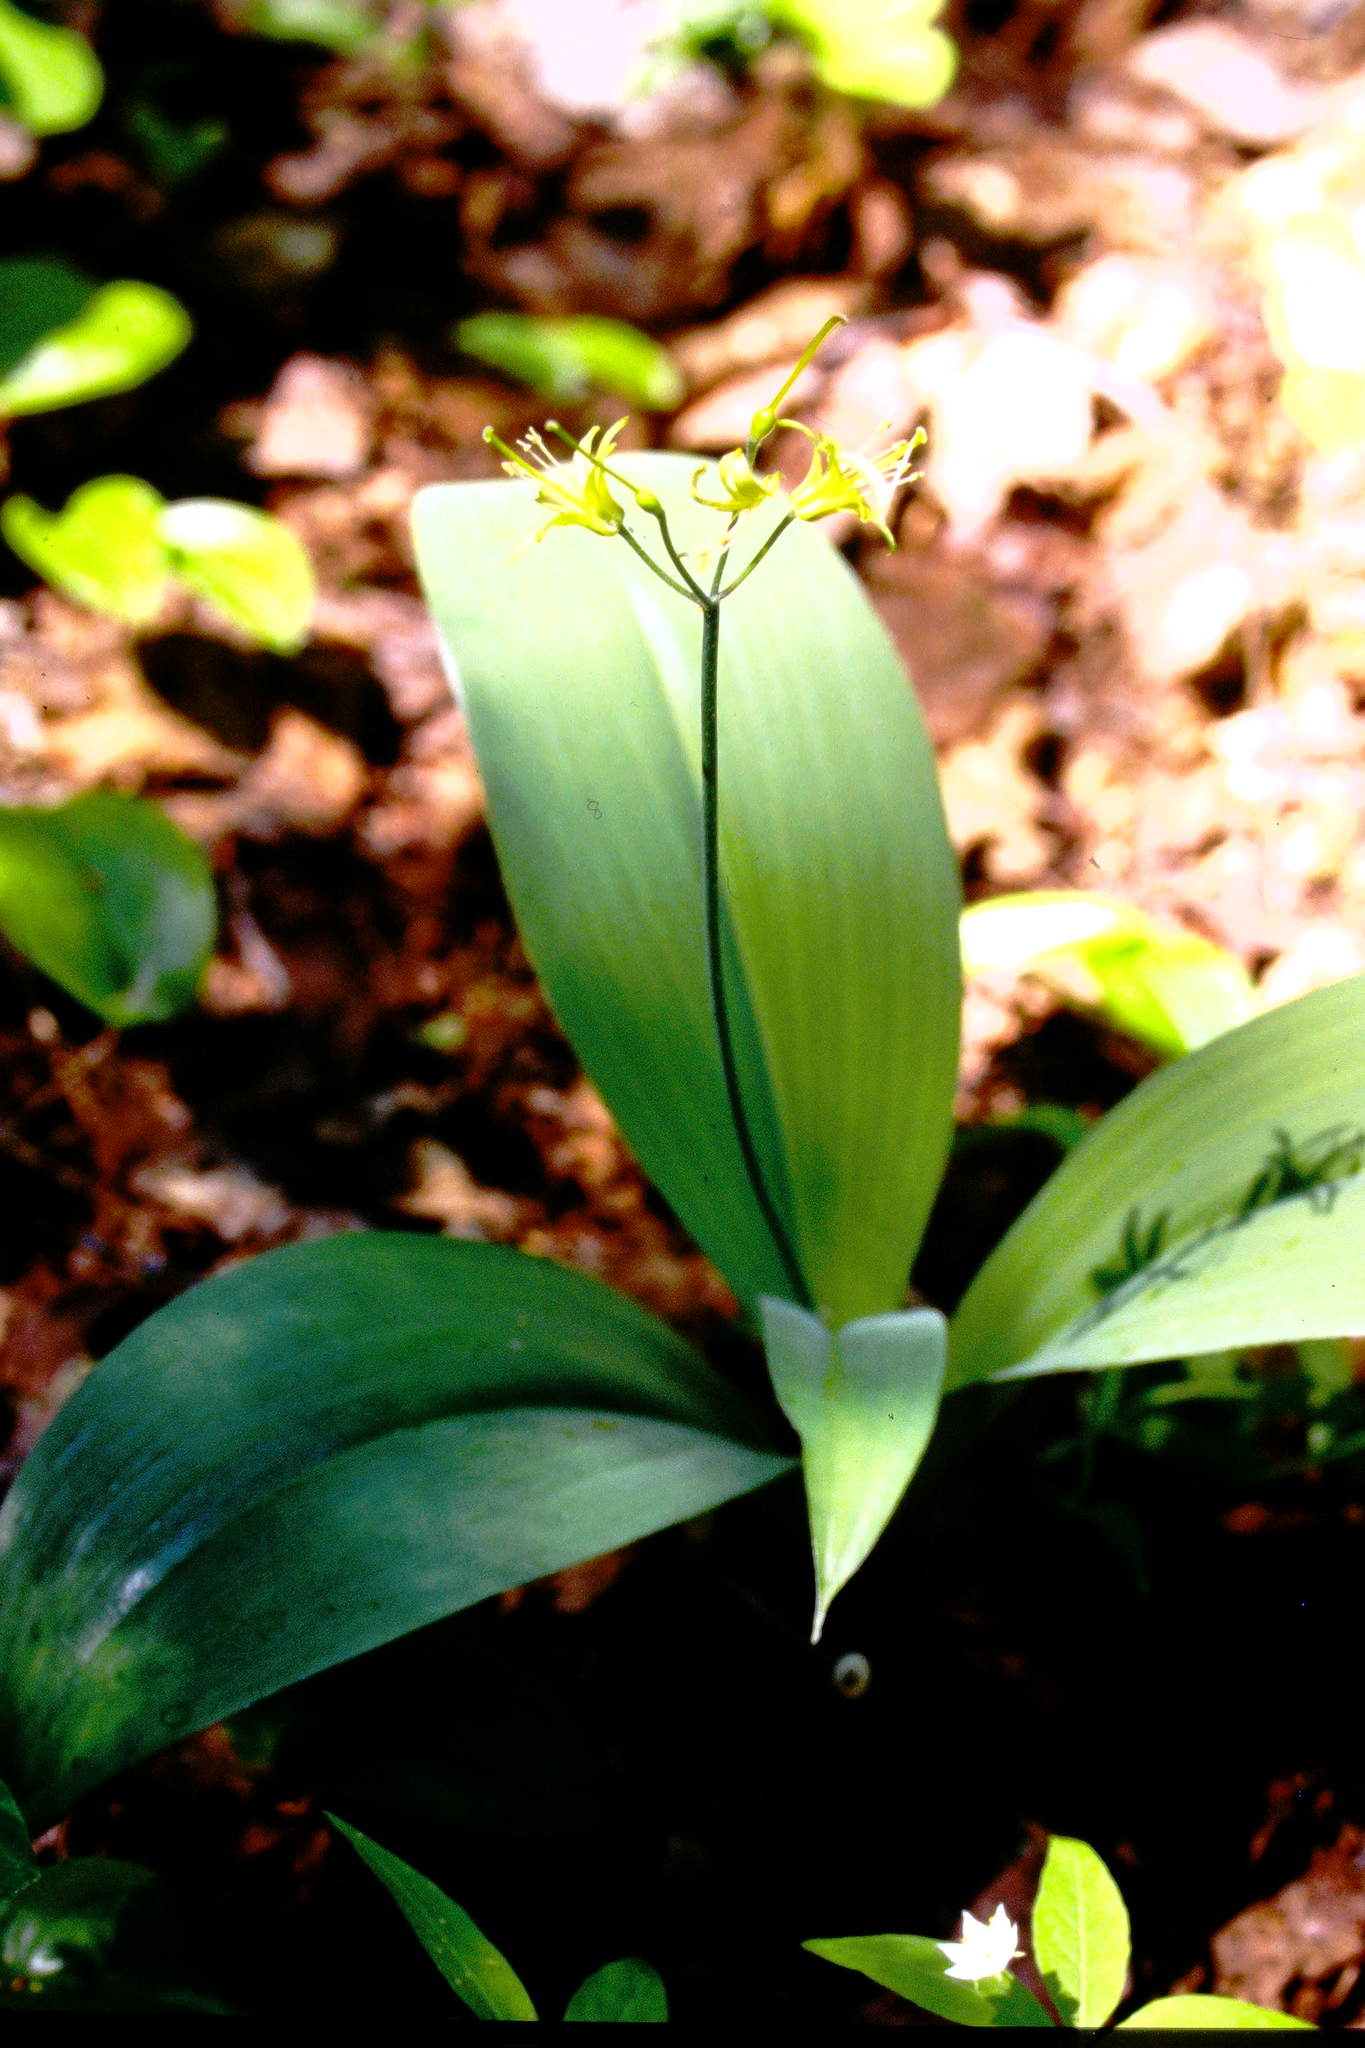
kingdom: Plantae
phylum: Tracheophyta
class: Liliopsida
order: Liliales
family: Liliaceae
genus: Clintonia
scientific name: Clintonia borealis
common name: Yellow clintonia
